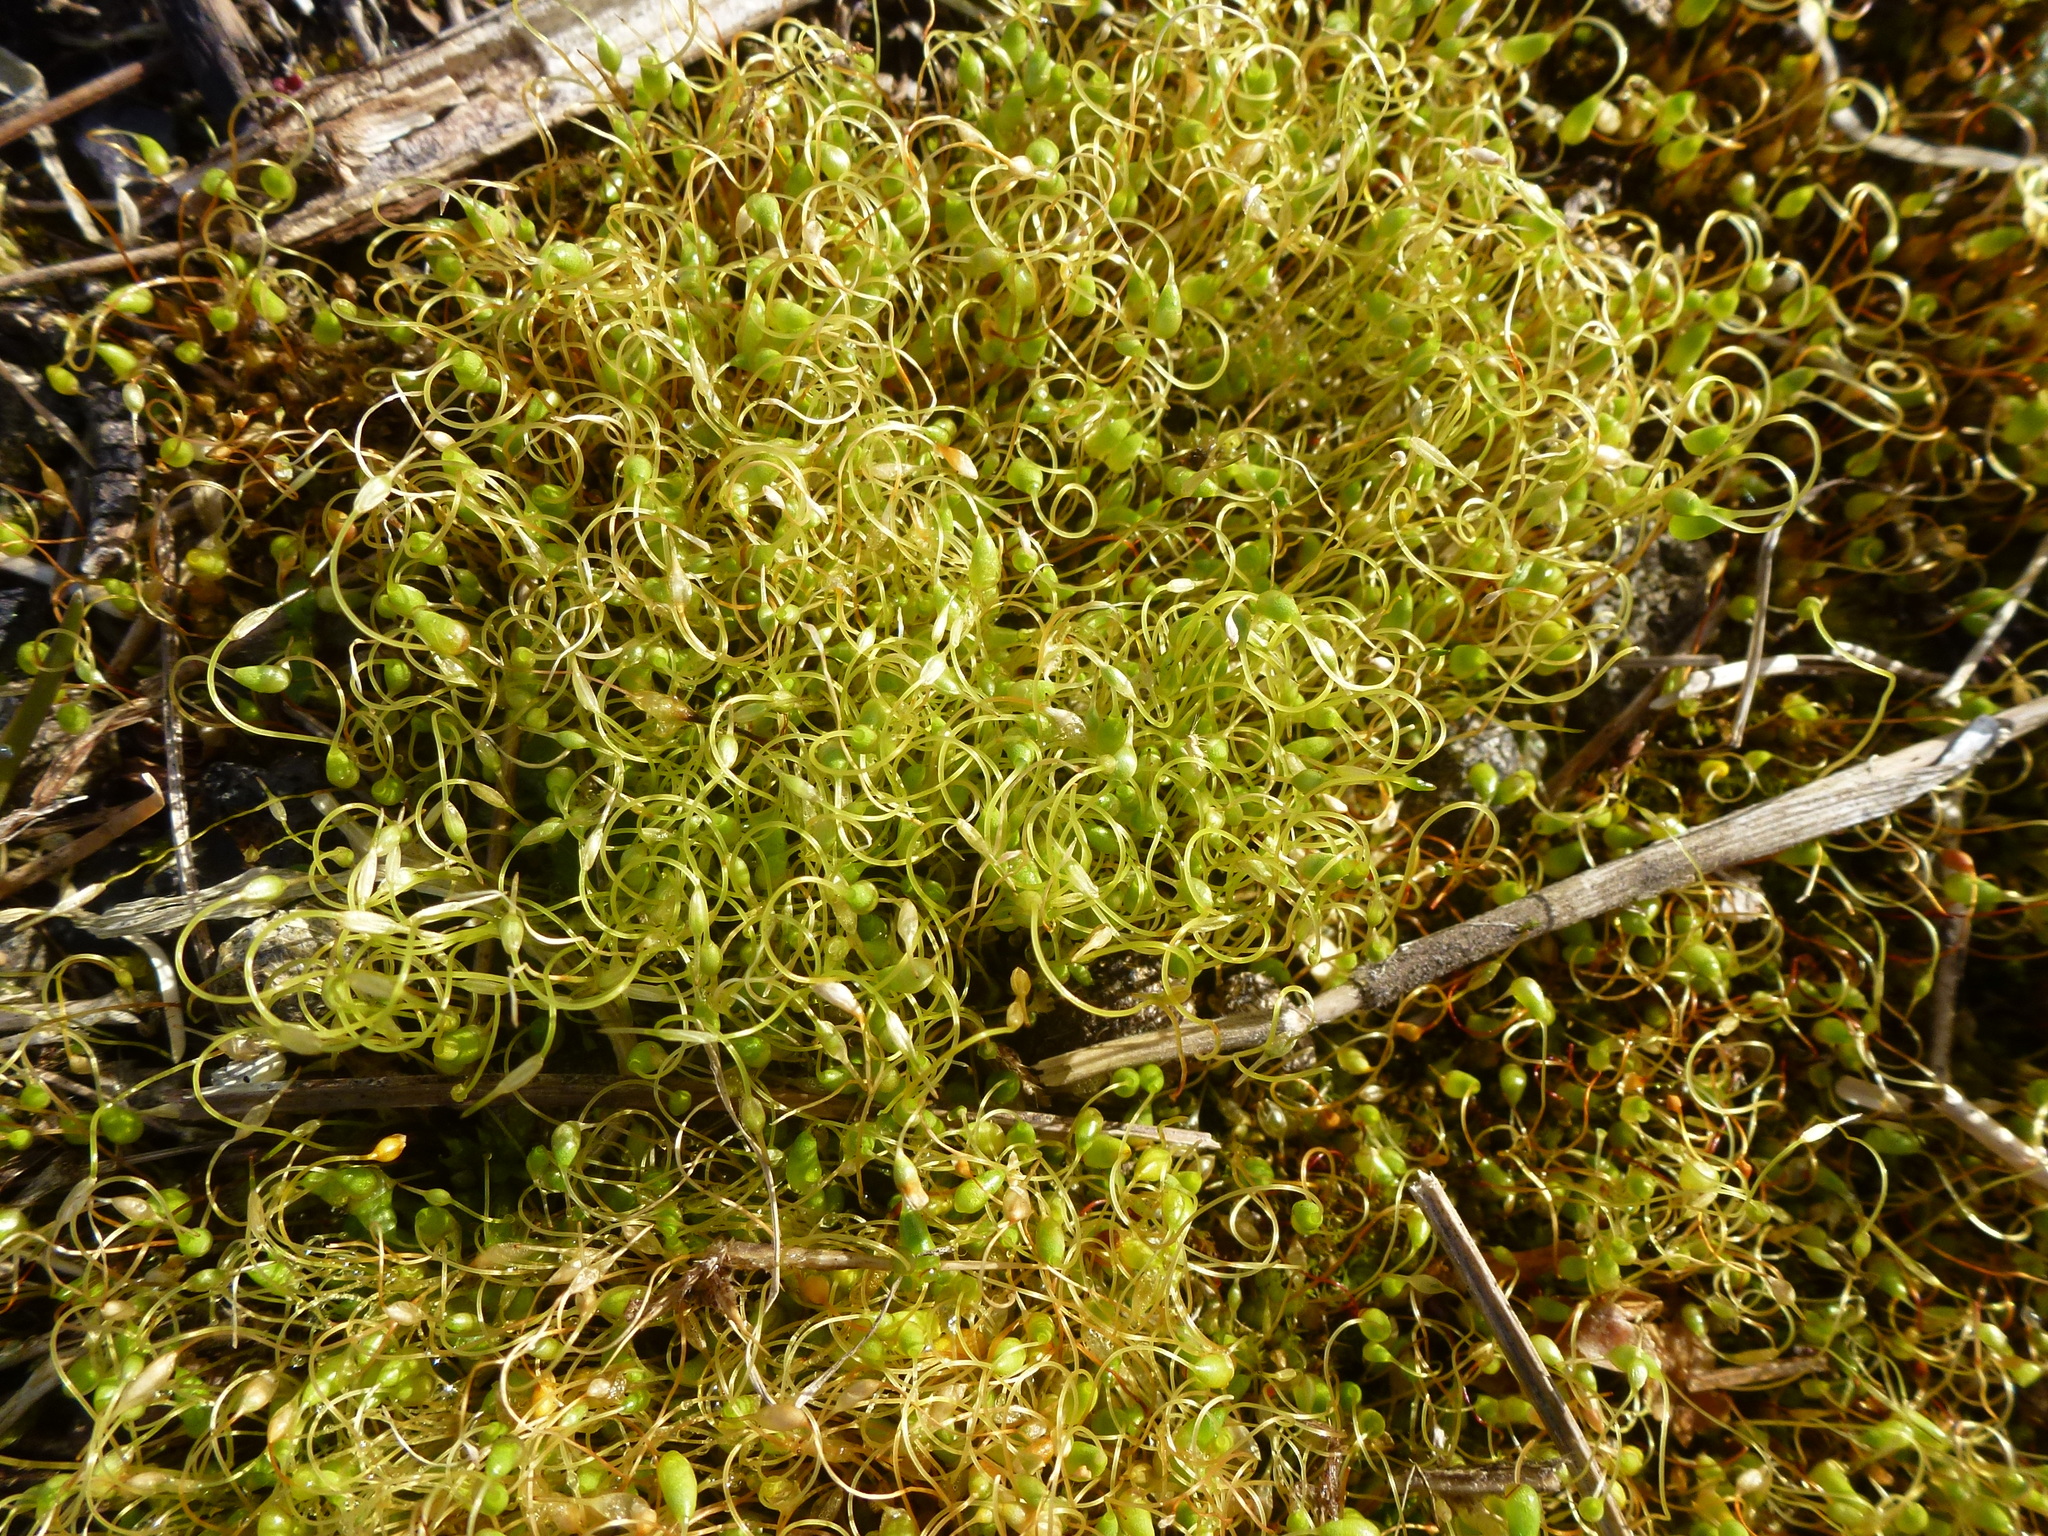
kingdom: Plantae
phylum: Bryophyta
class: Bryopsida
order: Funariales
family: Funariaceae
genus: Funaria
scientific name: Funaria hygrometrica
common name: Common cord moss
